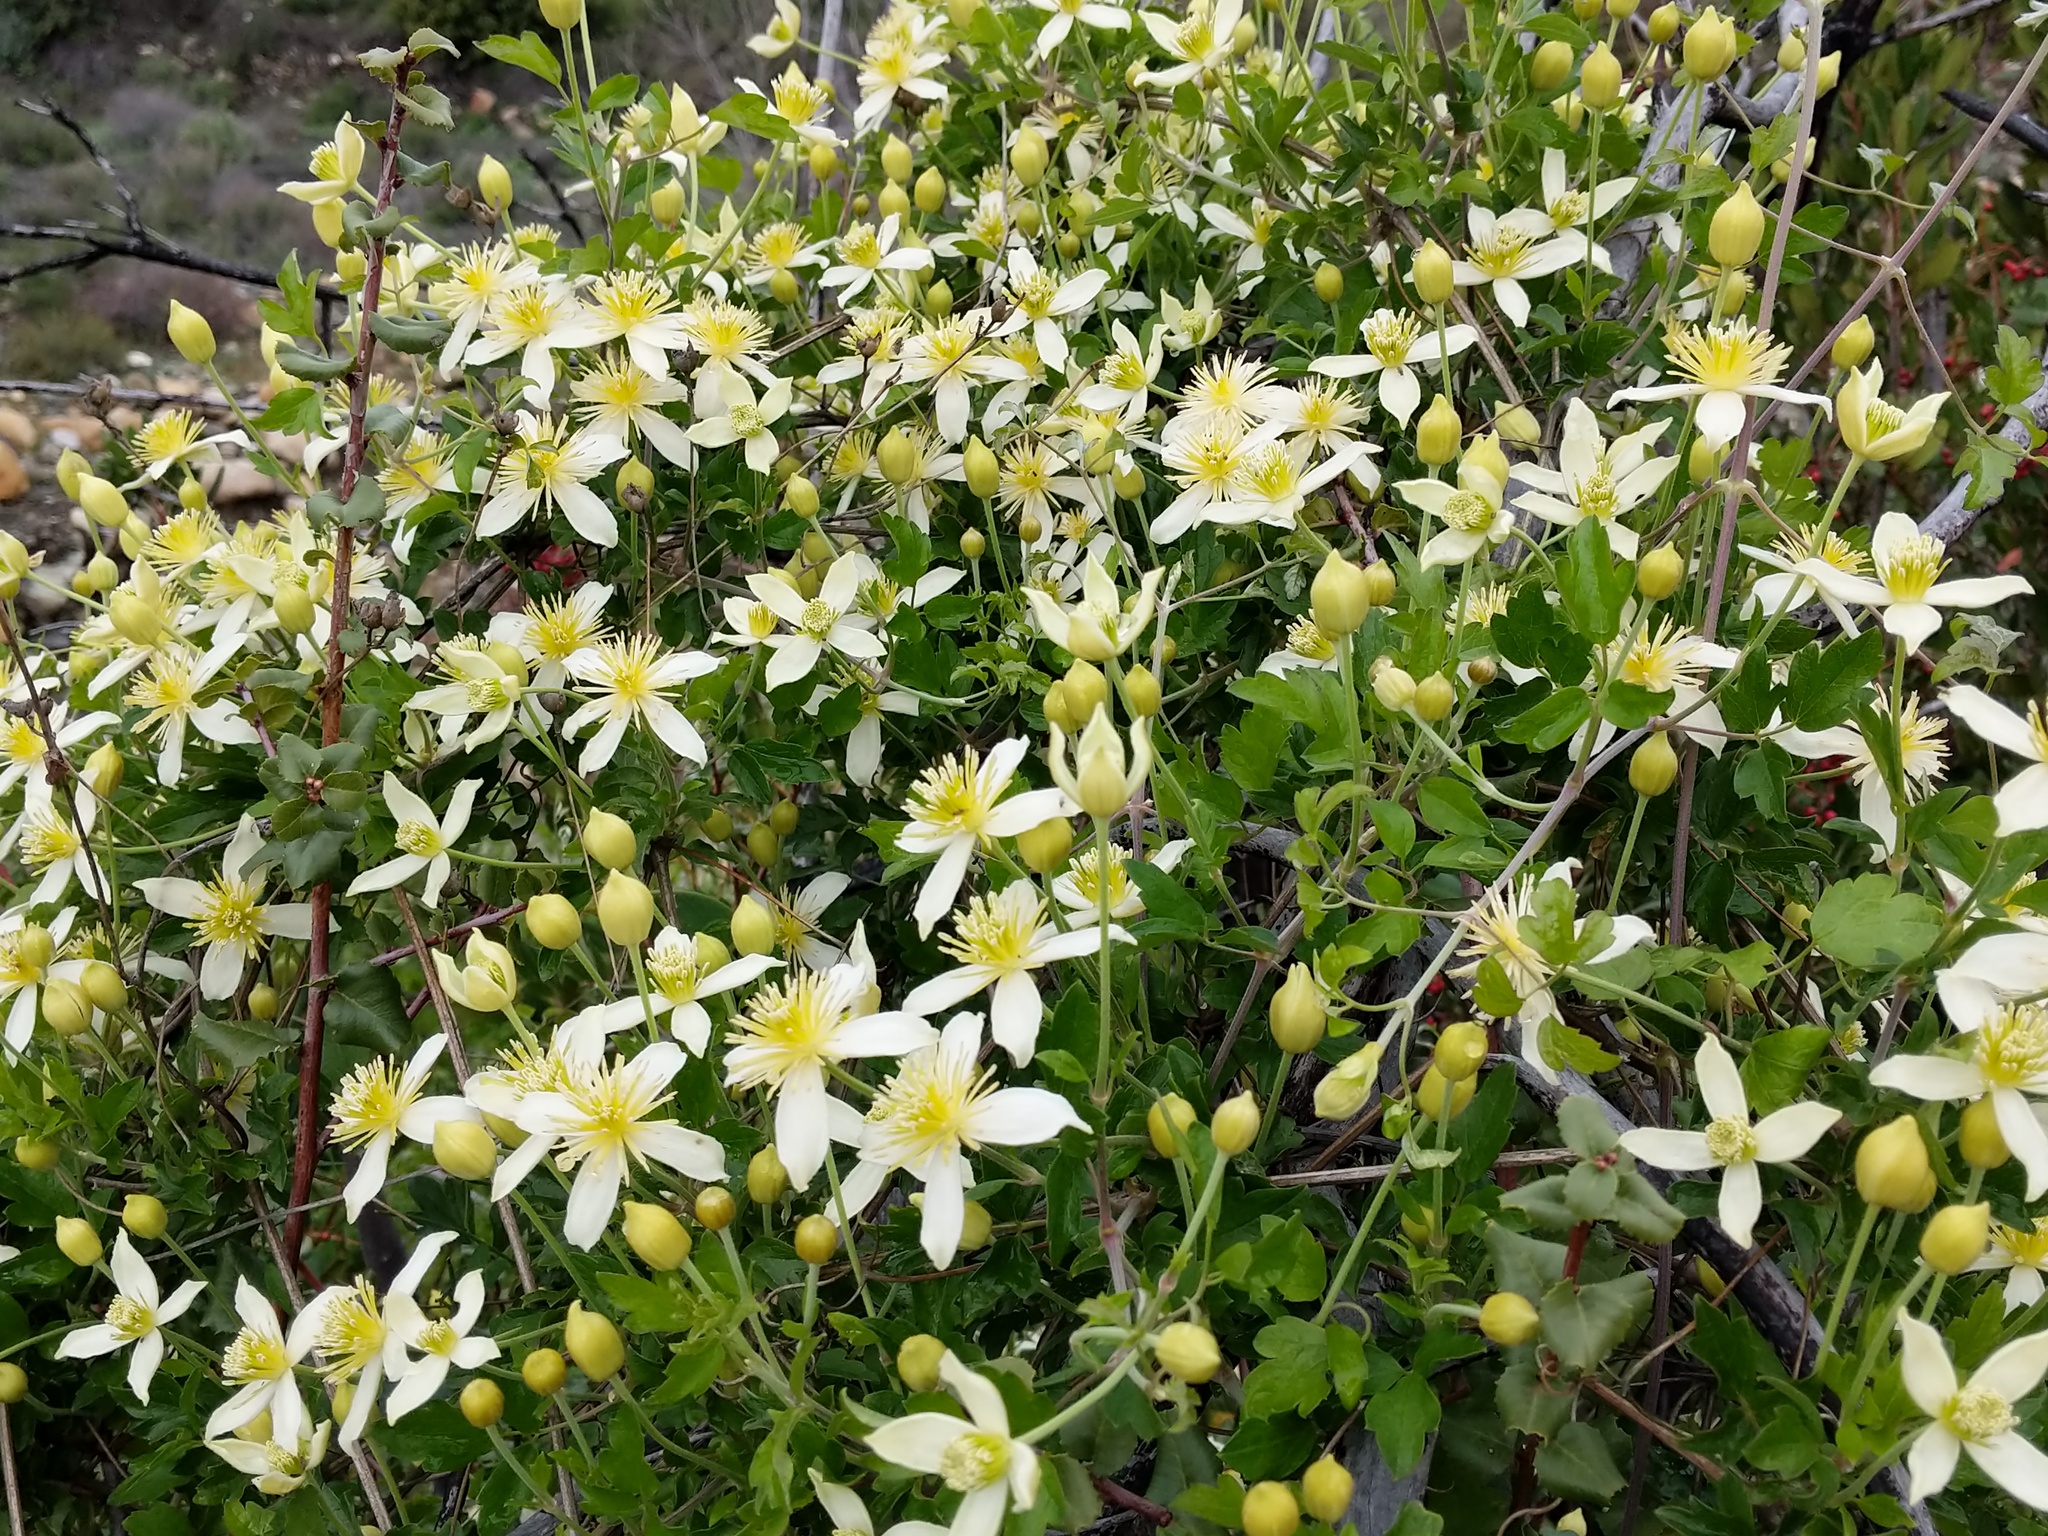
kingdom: Plantae
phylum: Tracheophyta
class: Magnoliopsida
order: Ranunculales
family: Ranunculaceae
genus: Clematis
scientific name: Clematis lasiantha
